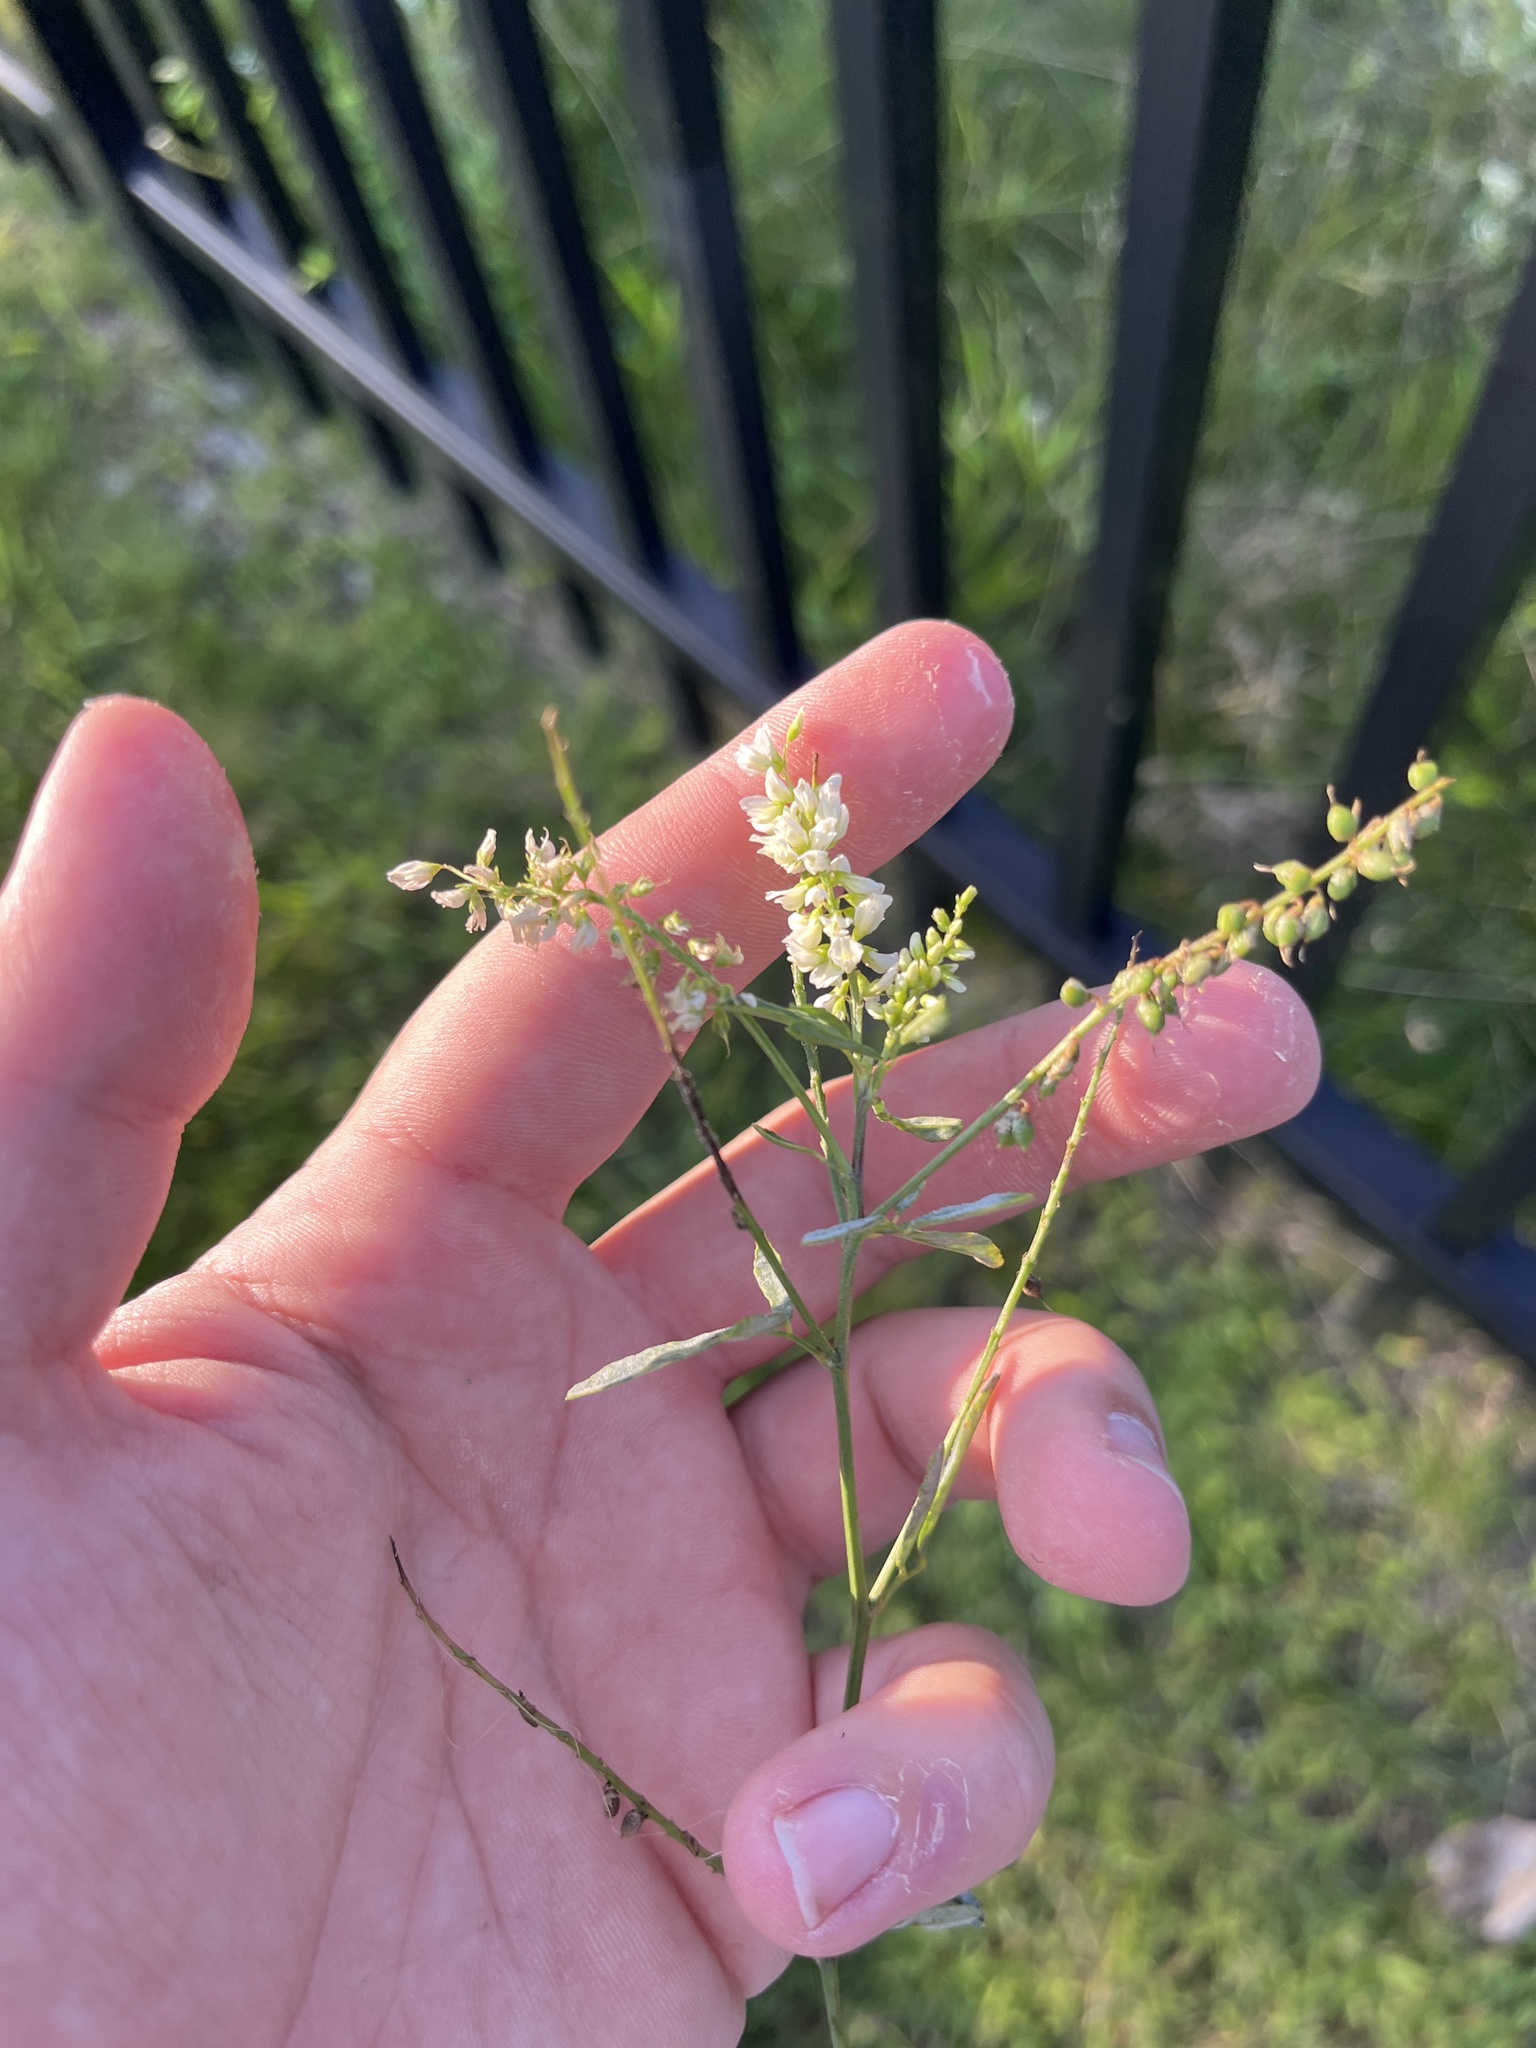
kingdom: Plantae
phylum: Tracheophyta
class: Magnoliopsida
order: Fabales
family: Fabaceae
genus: Melilotus
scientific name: Melilotus albus
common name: White melilot
